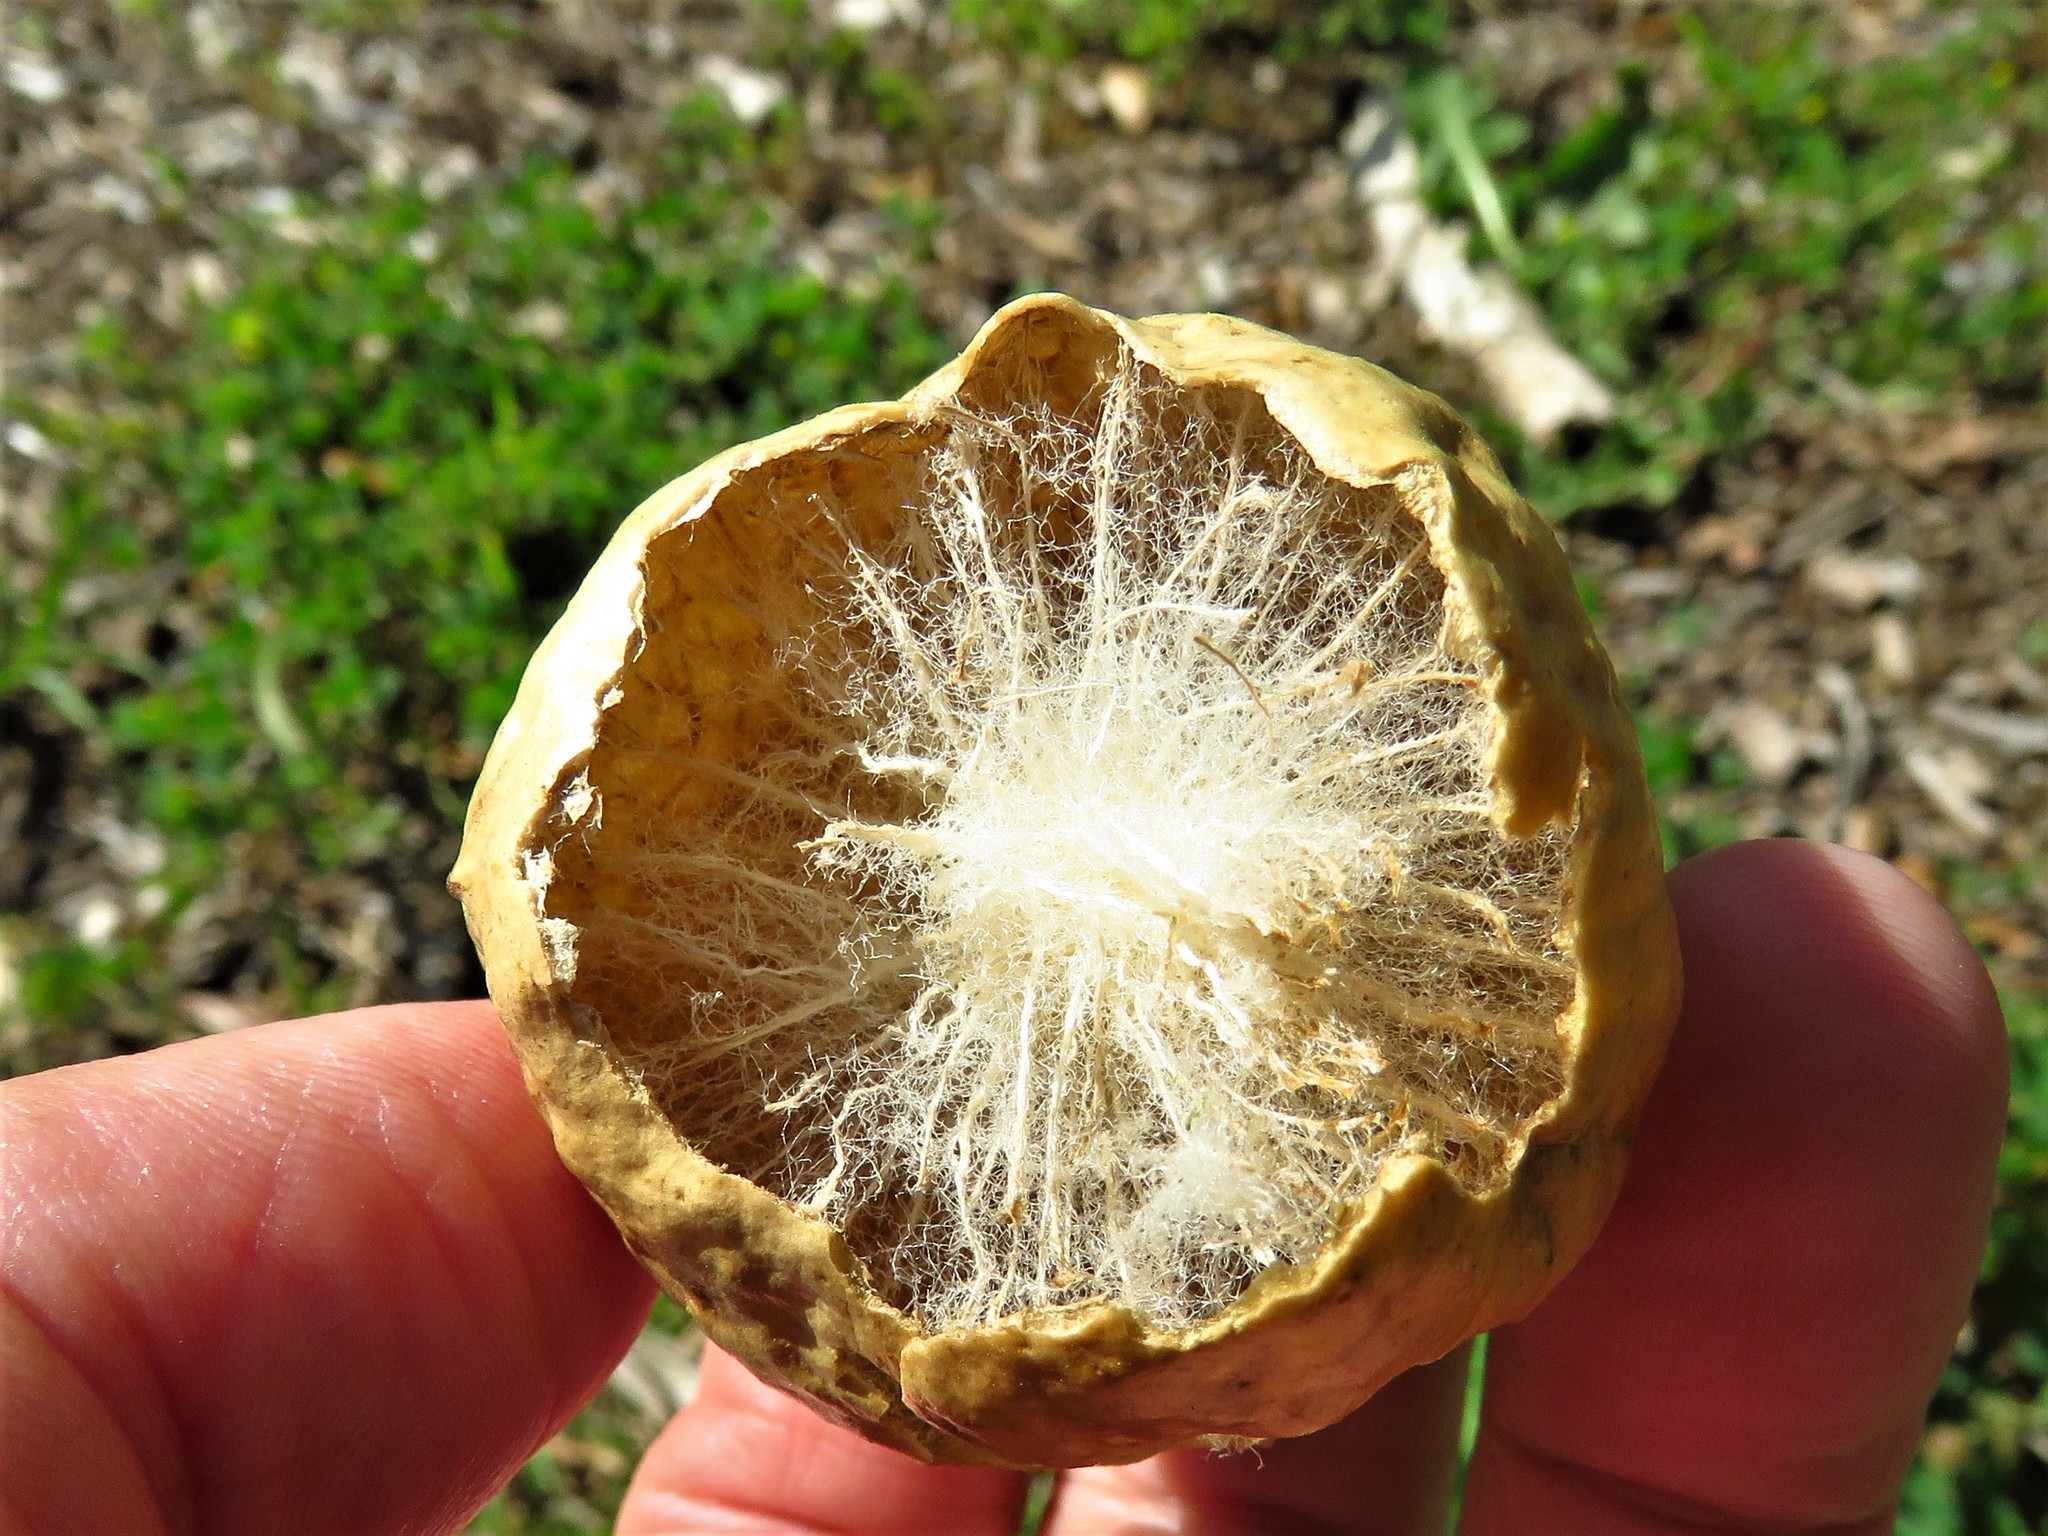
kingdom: Animalia
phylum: Arthropoda
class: Insecta
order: Hymenoptera
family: Cynipidae
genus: Amphibolips
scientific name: Amphibolips
